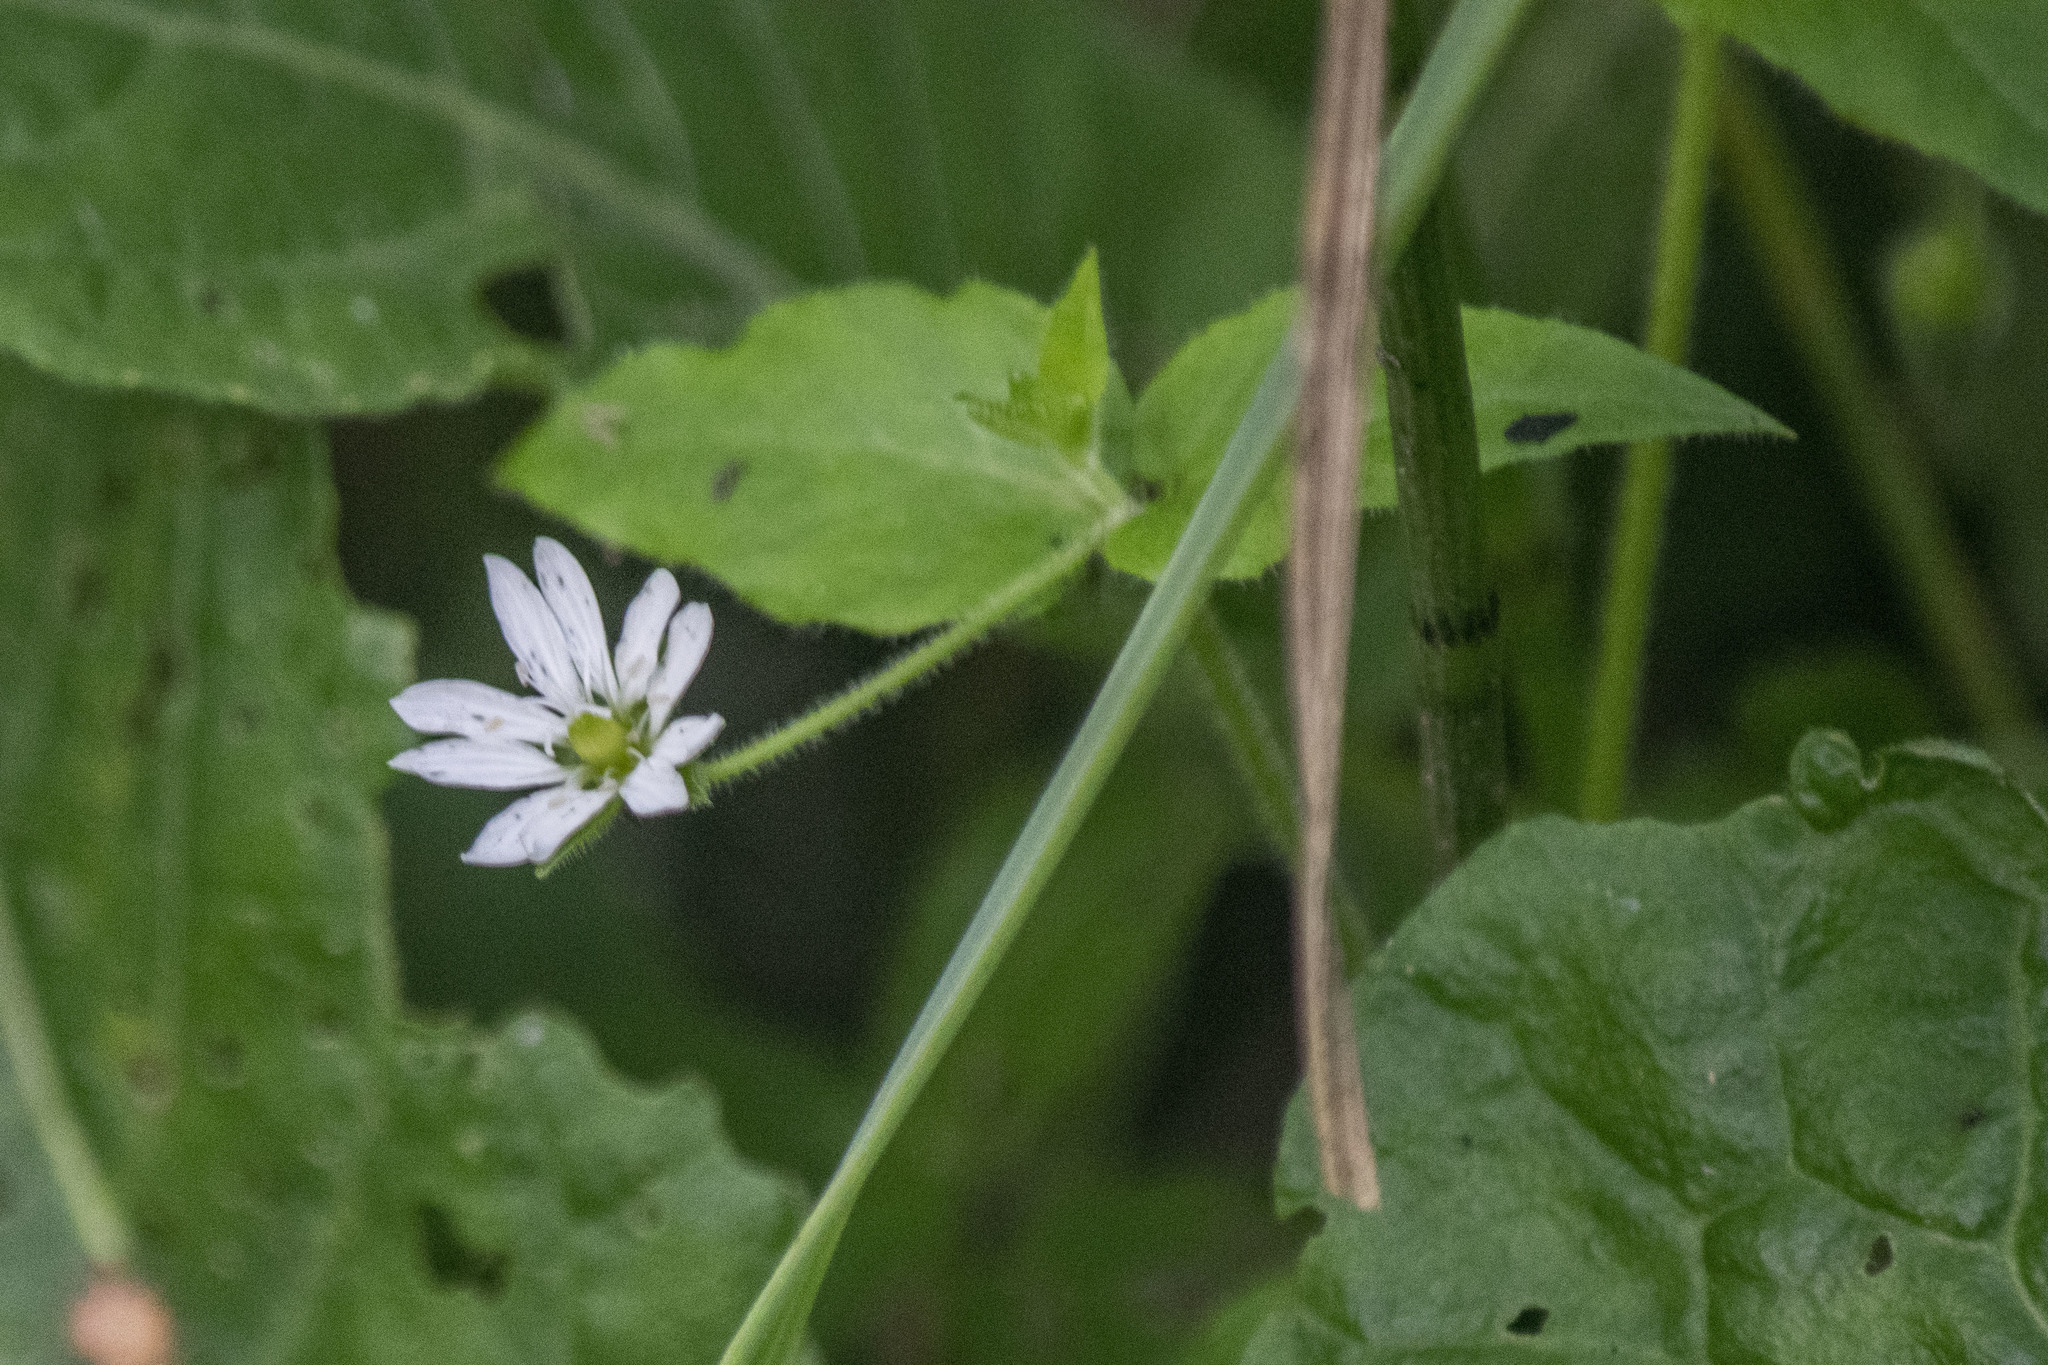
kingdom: Plantae
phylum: Tracheophyta
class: Magnoliopsida
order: Caryophyllales
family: Caryophyllaceae
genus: Stellaria
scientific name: Stellaria aquatica
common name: Water chickweed
